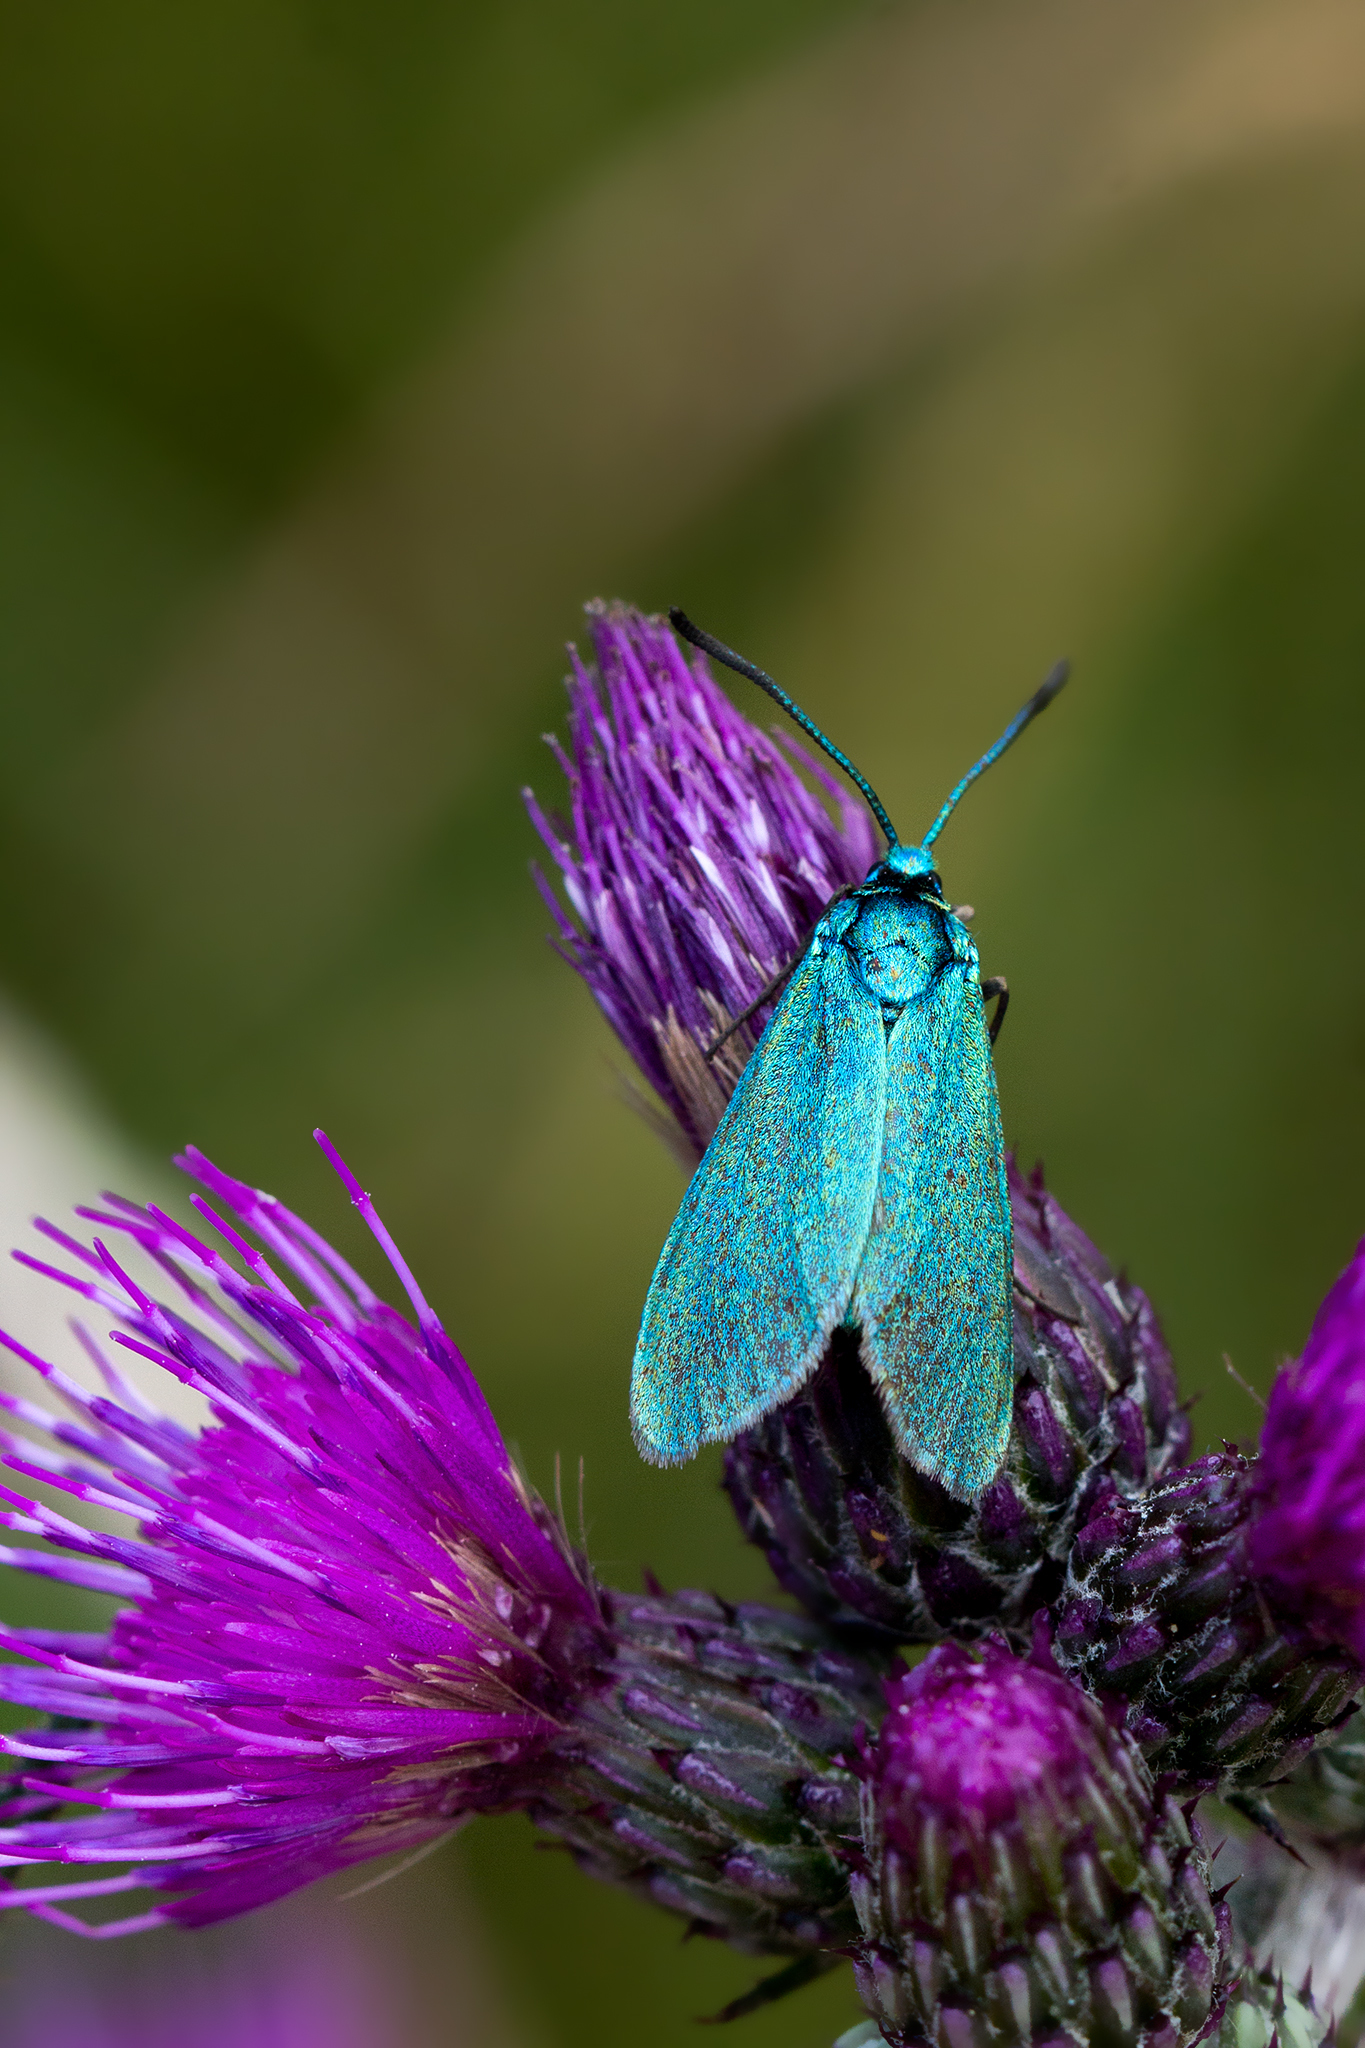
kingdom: Animalia
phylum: Arthropoda
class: Insecta
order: Lepidoptera
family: Zygaenidae
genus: Adscita
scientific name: Adscita statices
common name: Forester
